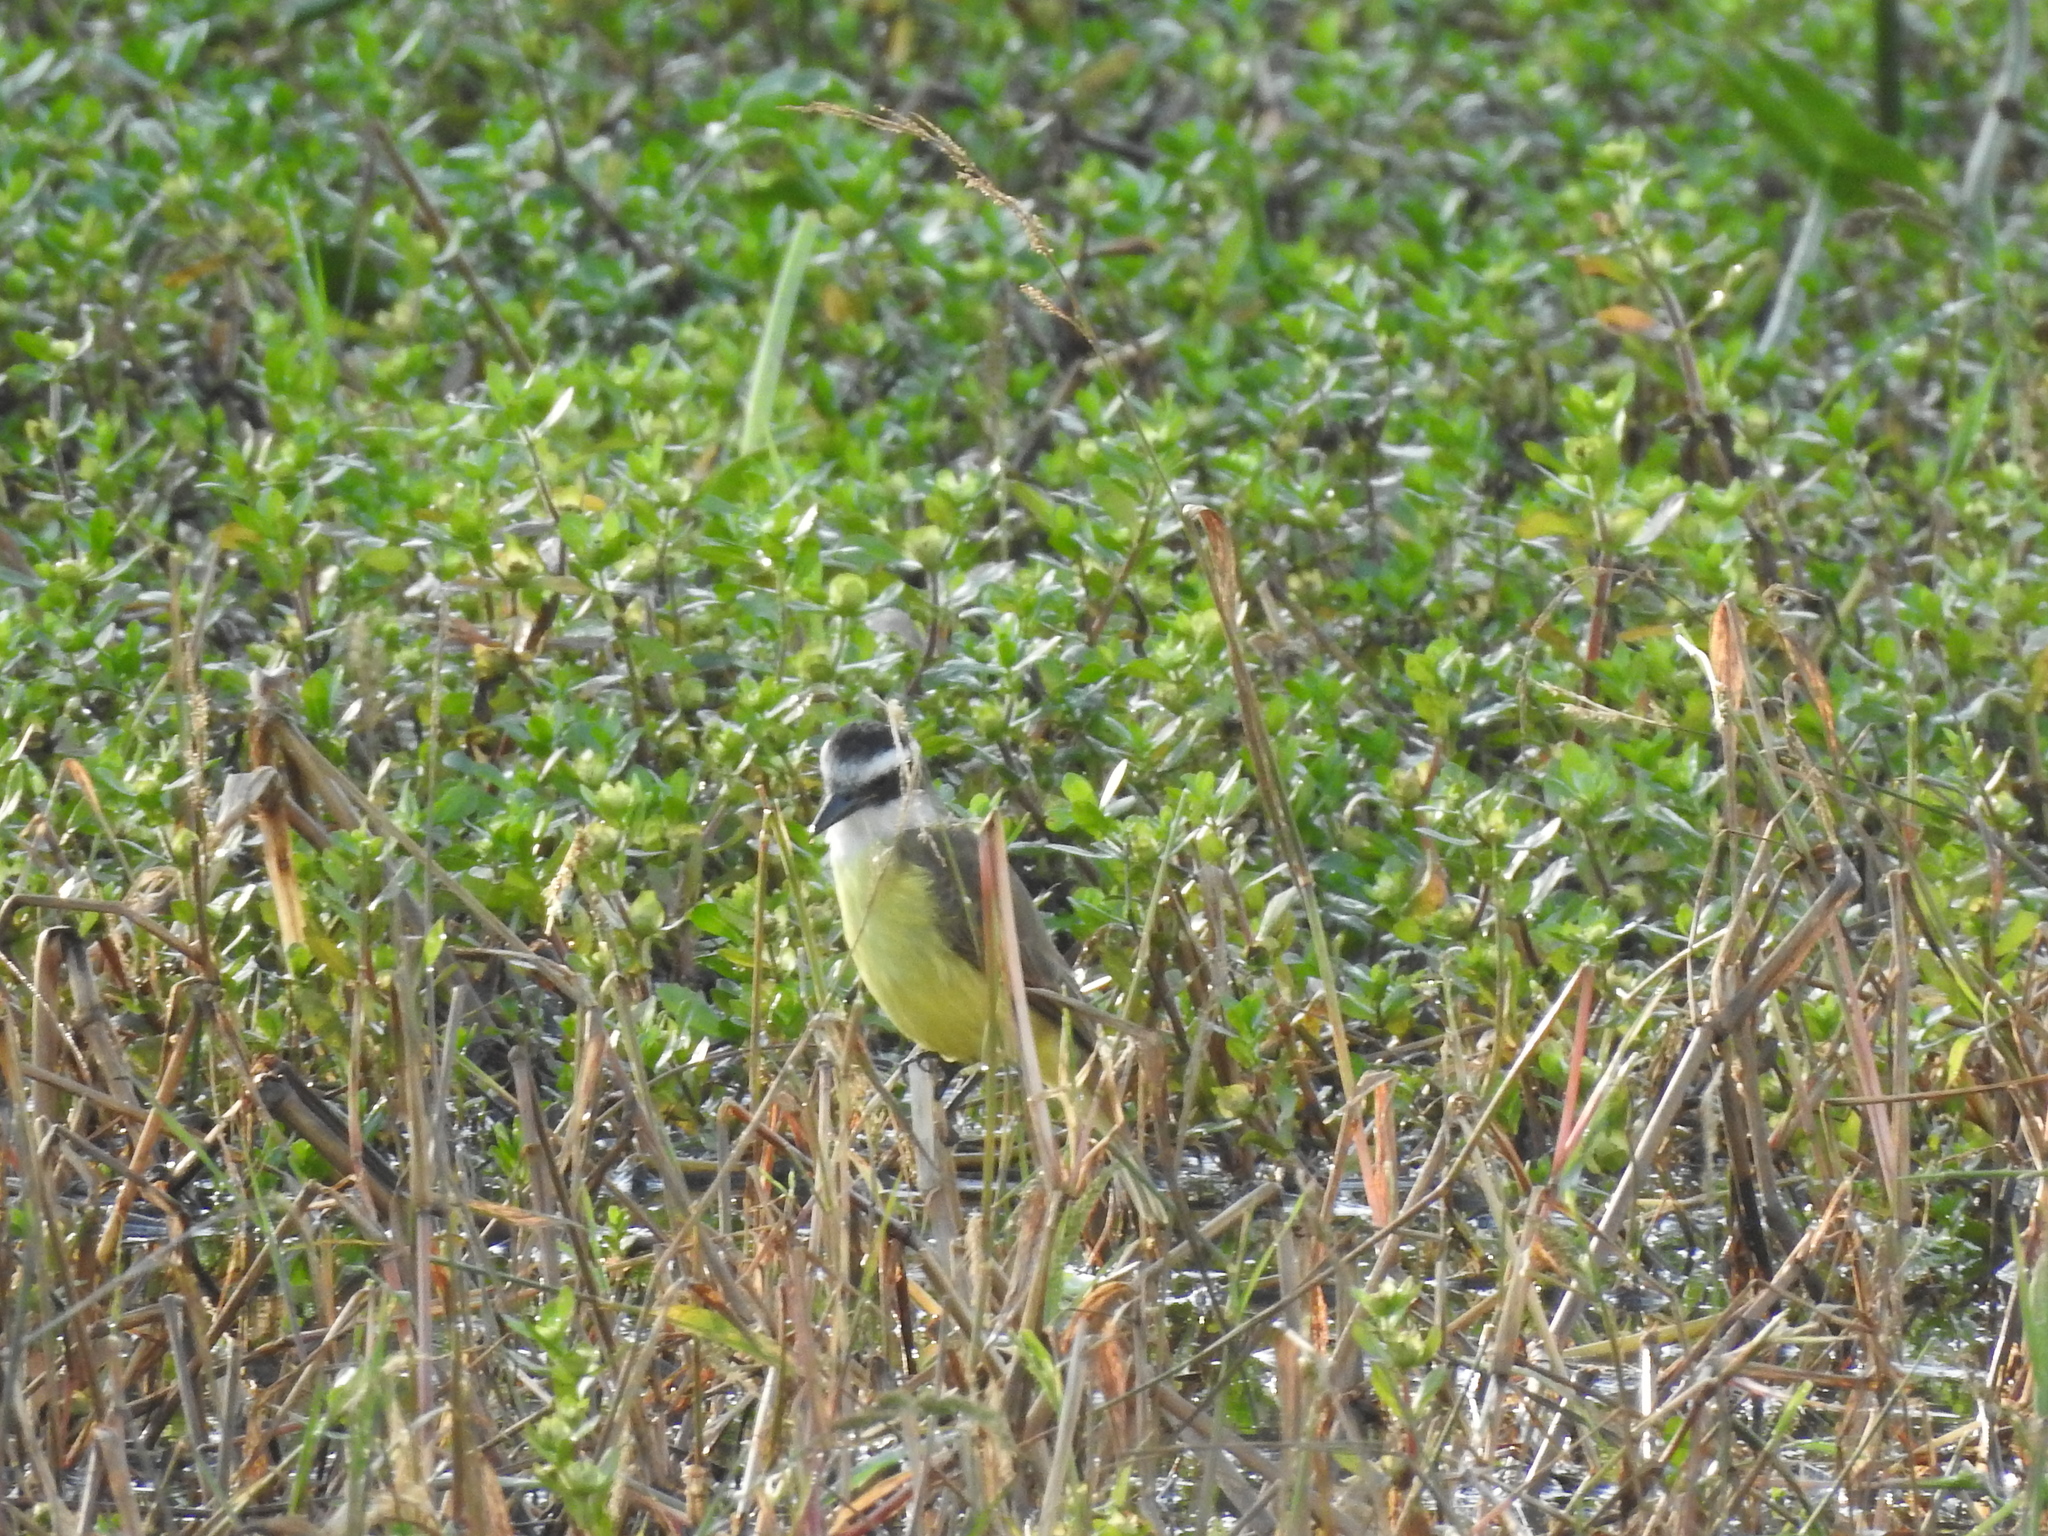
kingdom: Animalia
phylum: Chordata
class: Aves
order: Passeriformes
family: Tyrannidae
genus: Pitangus
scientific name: Pitangus sulphuratus
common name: Great kiskadee
